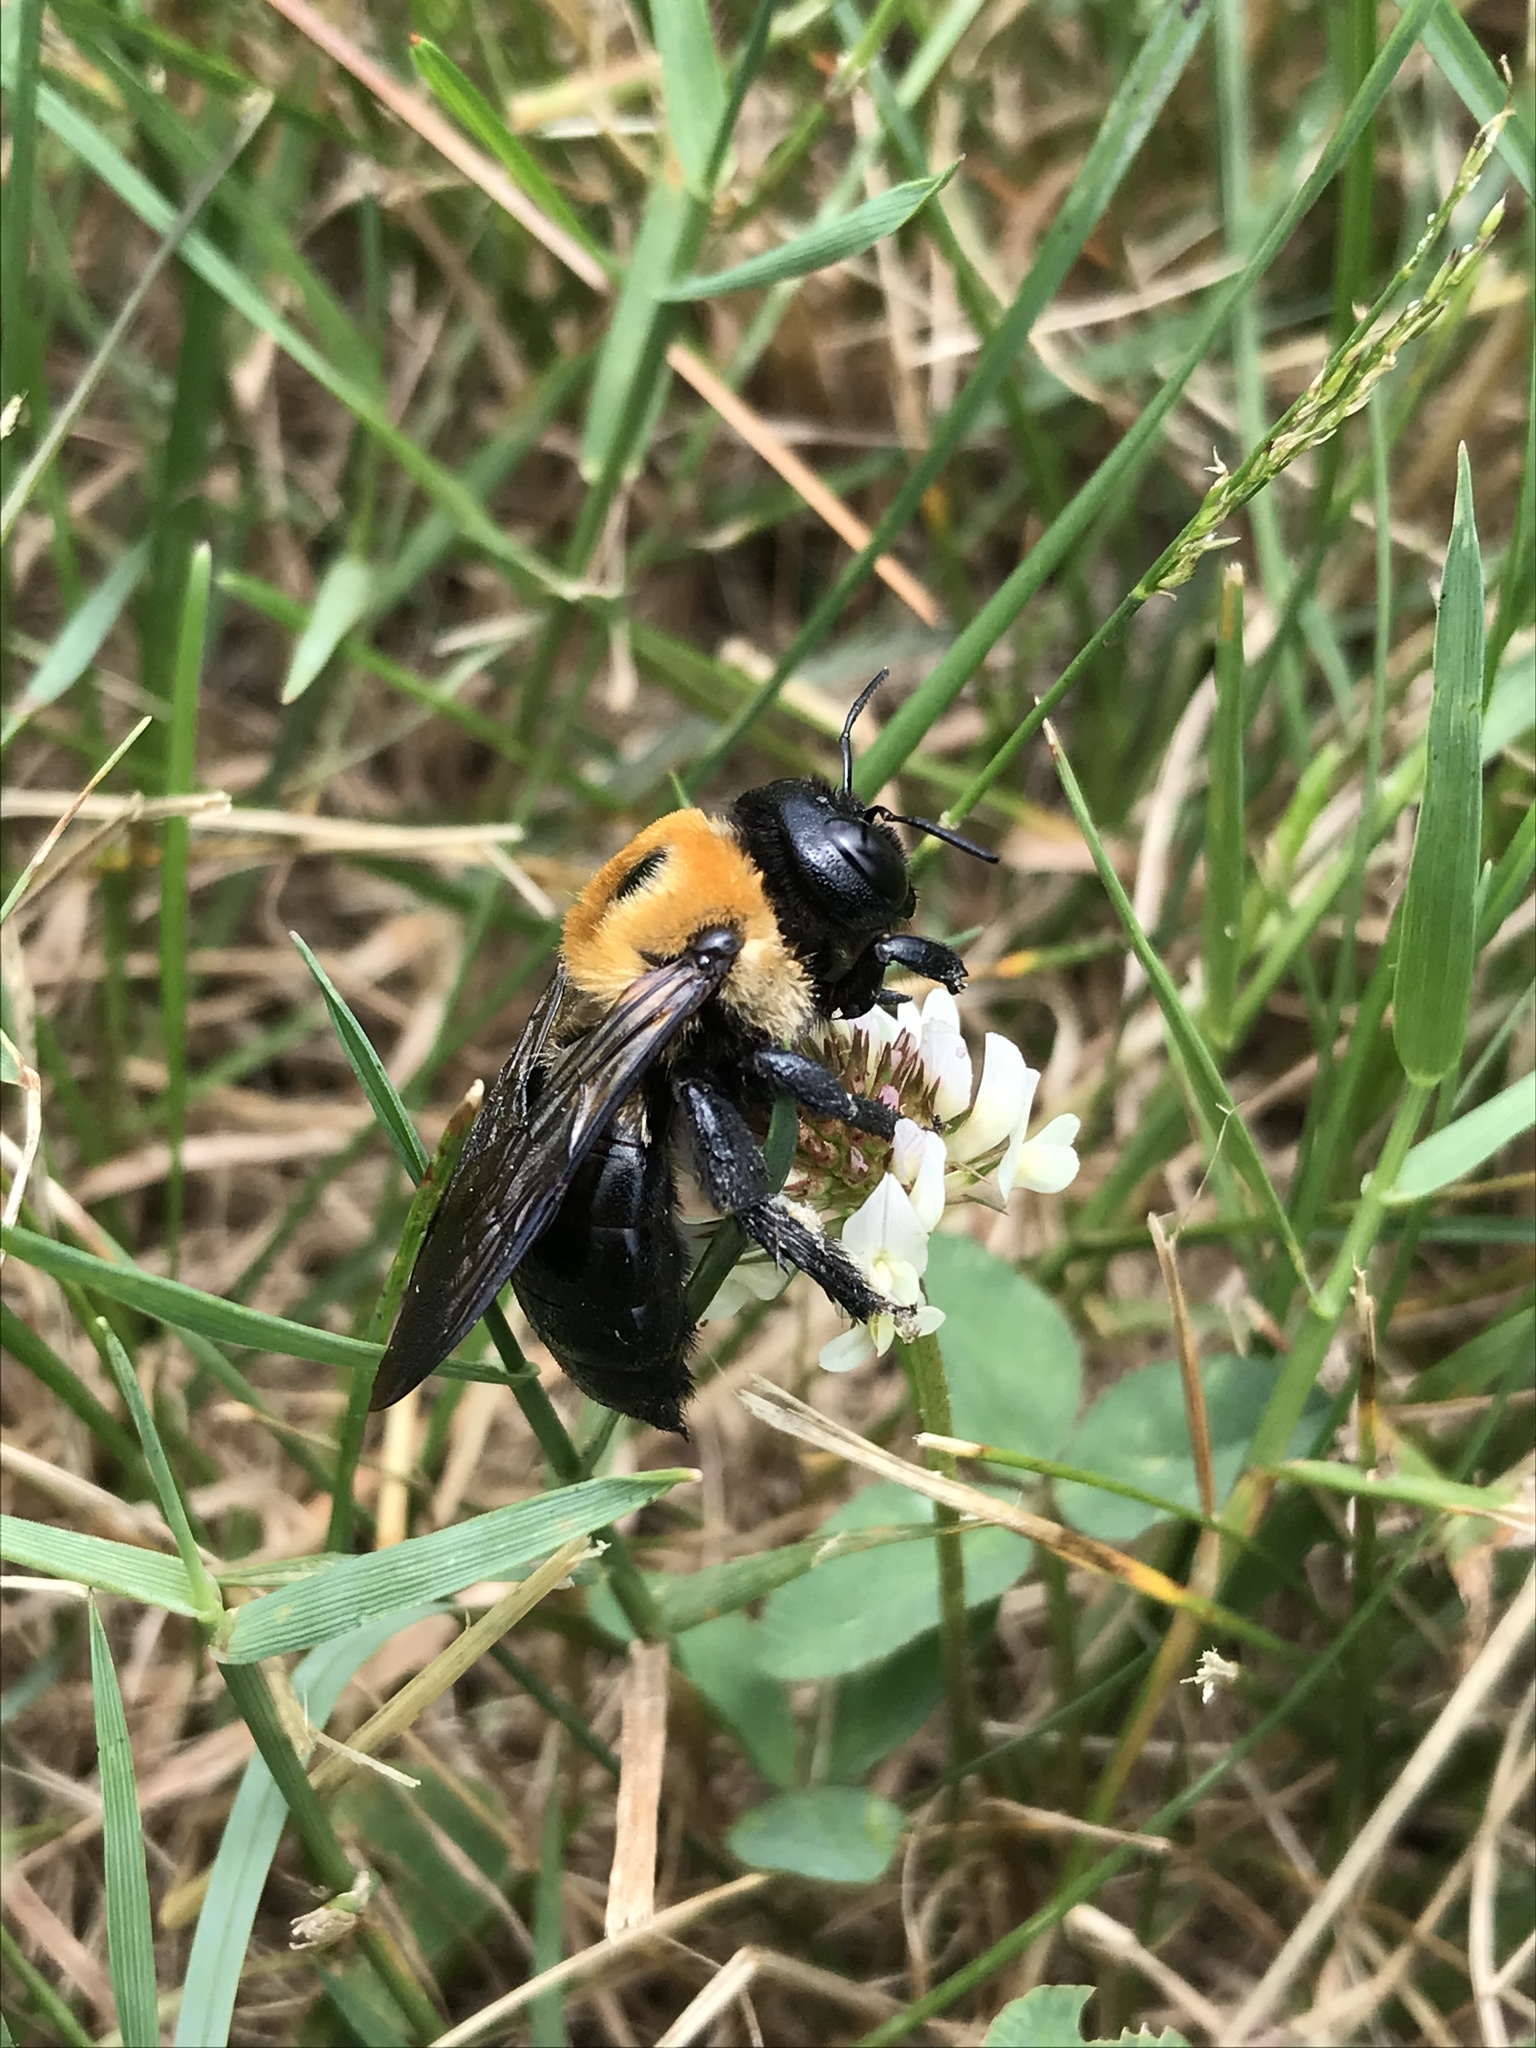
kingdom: Animalia
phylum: Arthropoda
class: Insecta
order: Hymenoptera
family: Apidae
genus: Xylocopa
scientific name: Xylocopa virginica
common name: Carpenter bee
